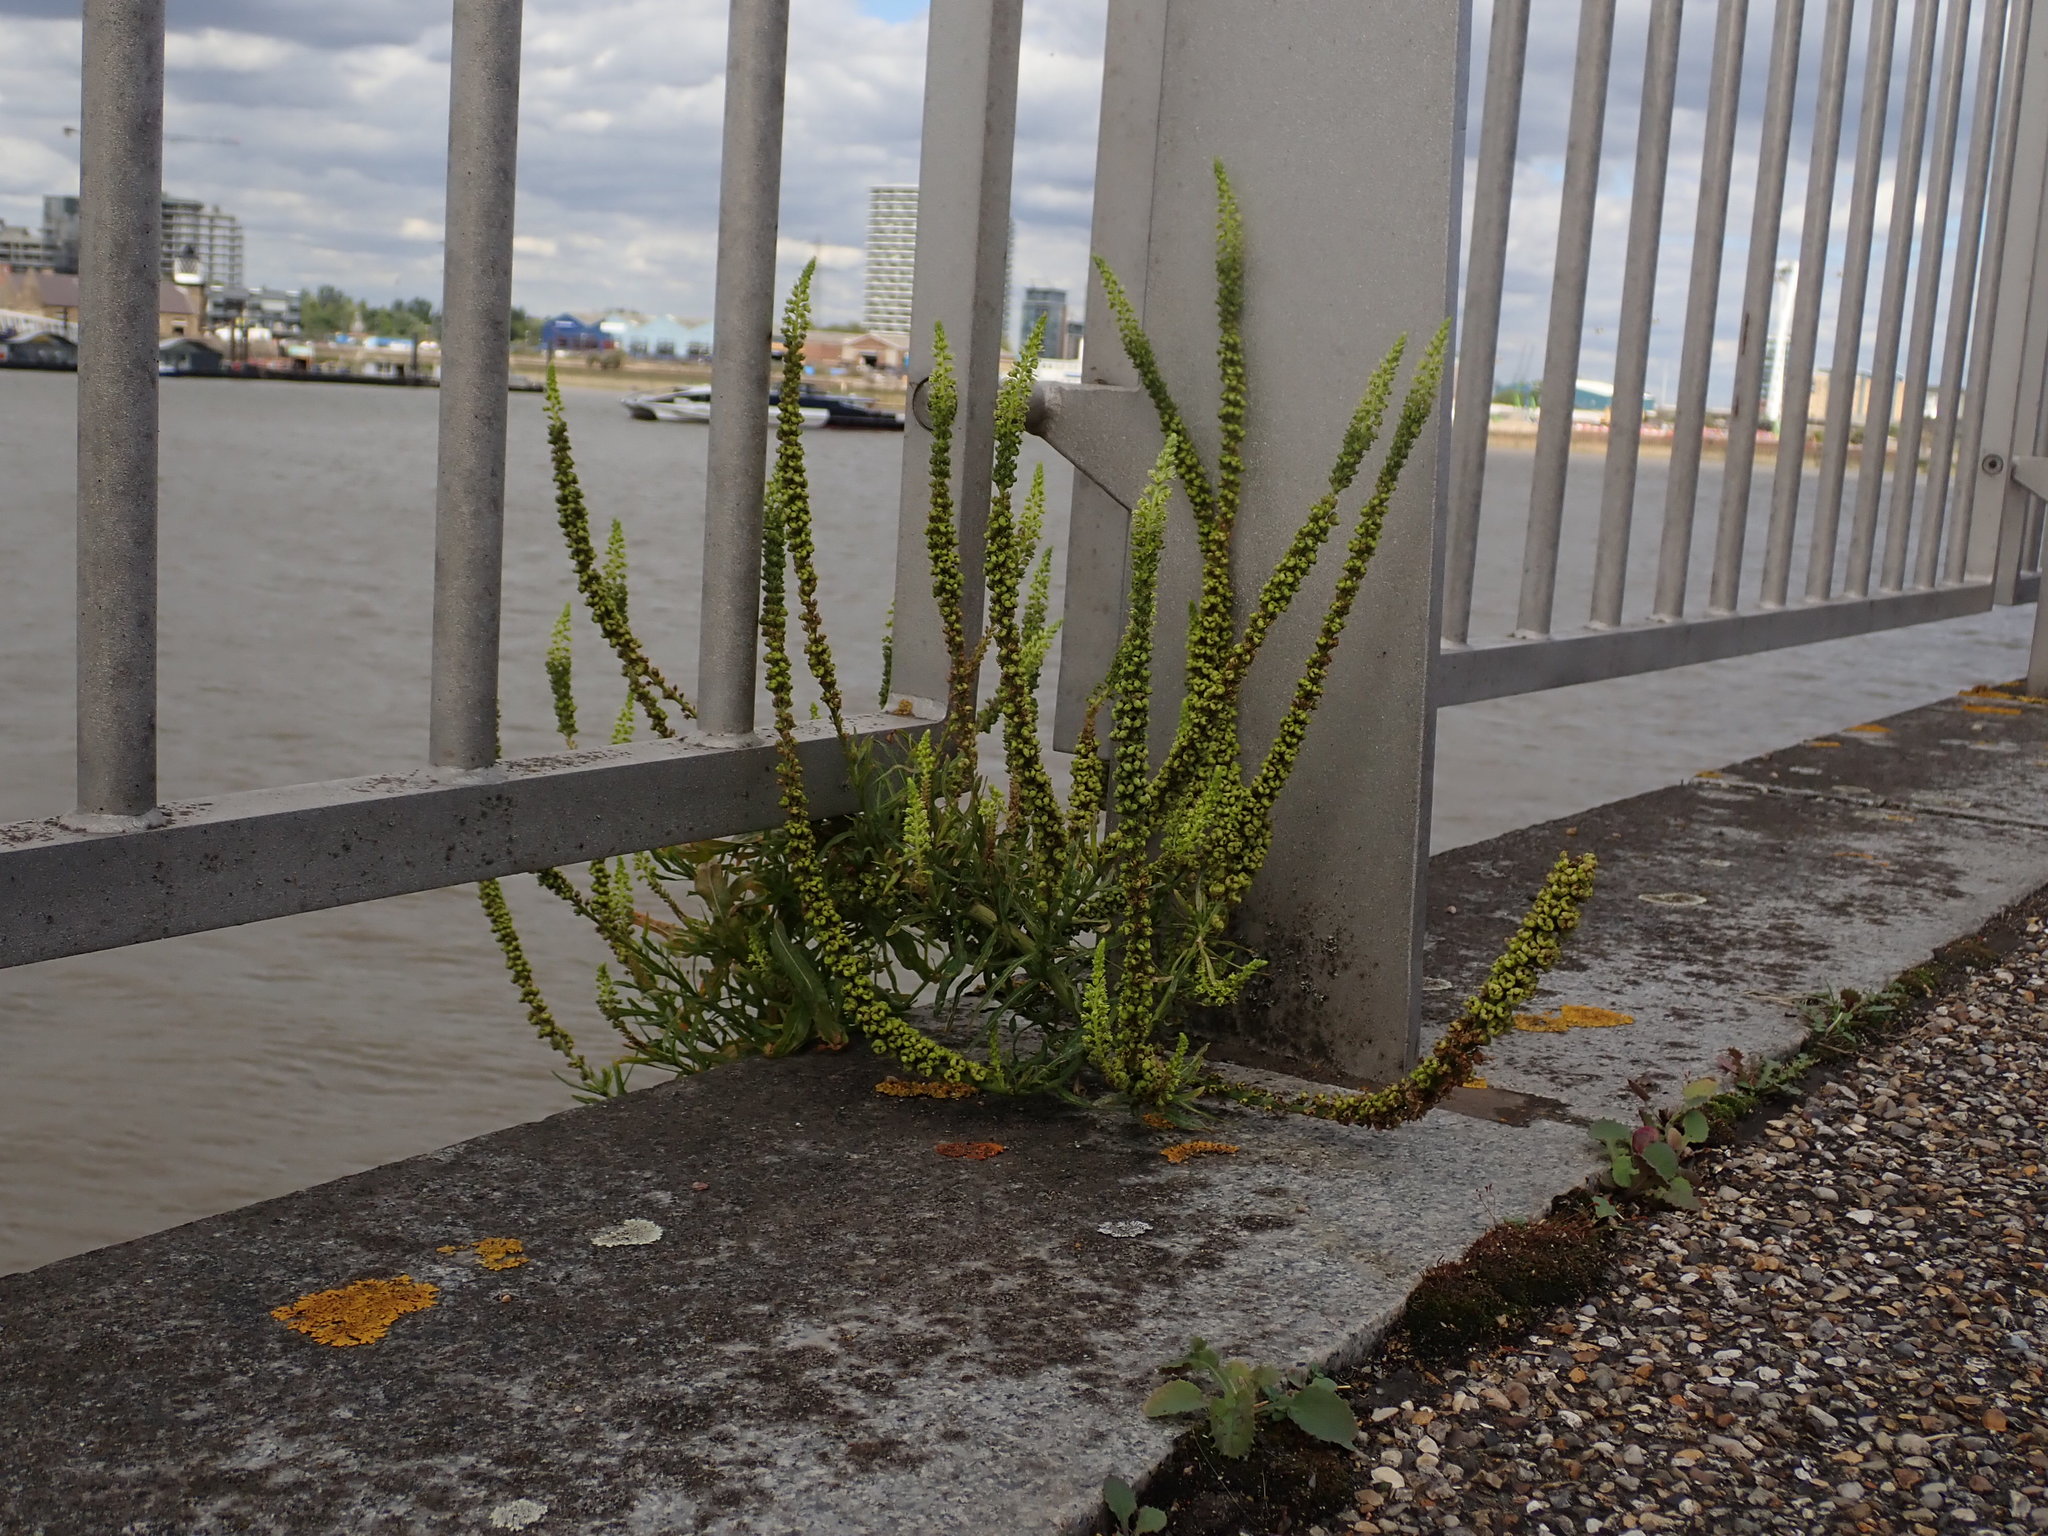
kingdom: Plantae
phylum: Tracheophyta
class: Magnoliopsida
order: Brassicales
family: Resedaceae
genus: Reseda
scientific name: Reseda luteola
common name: Weld
